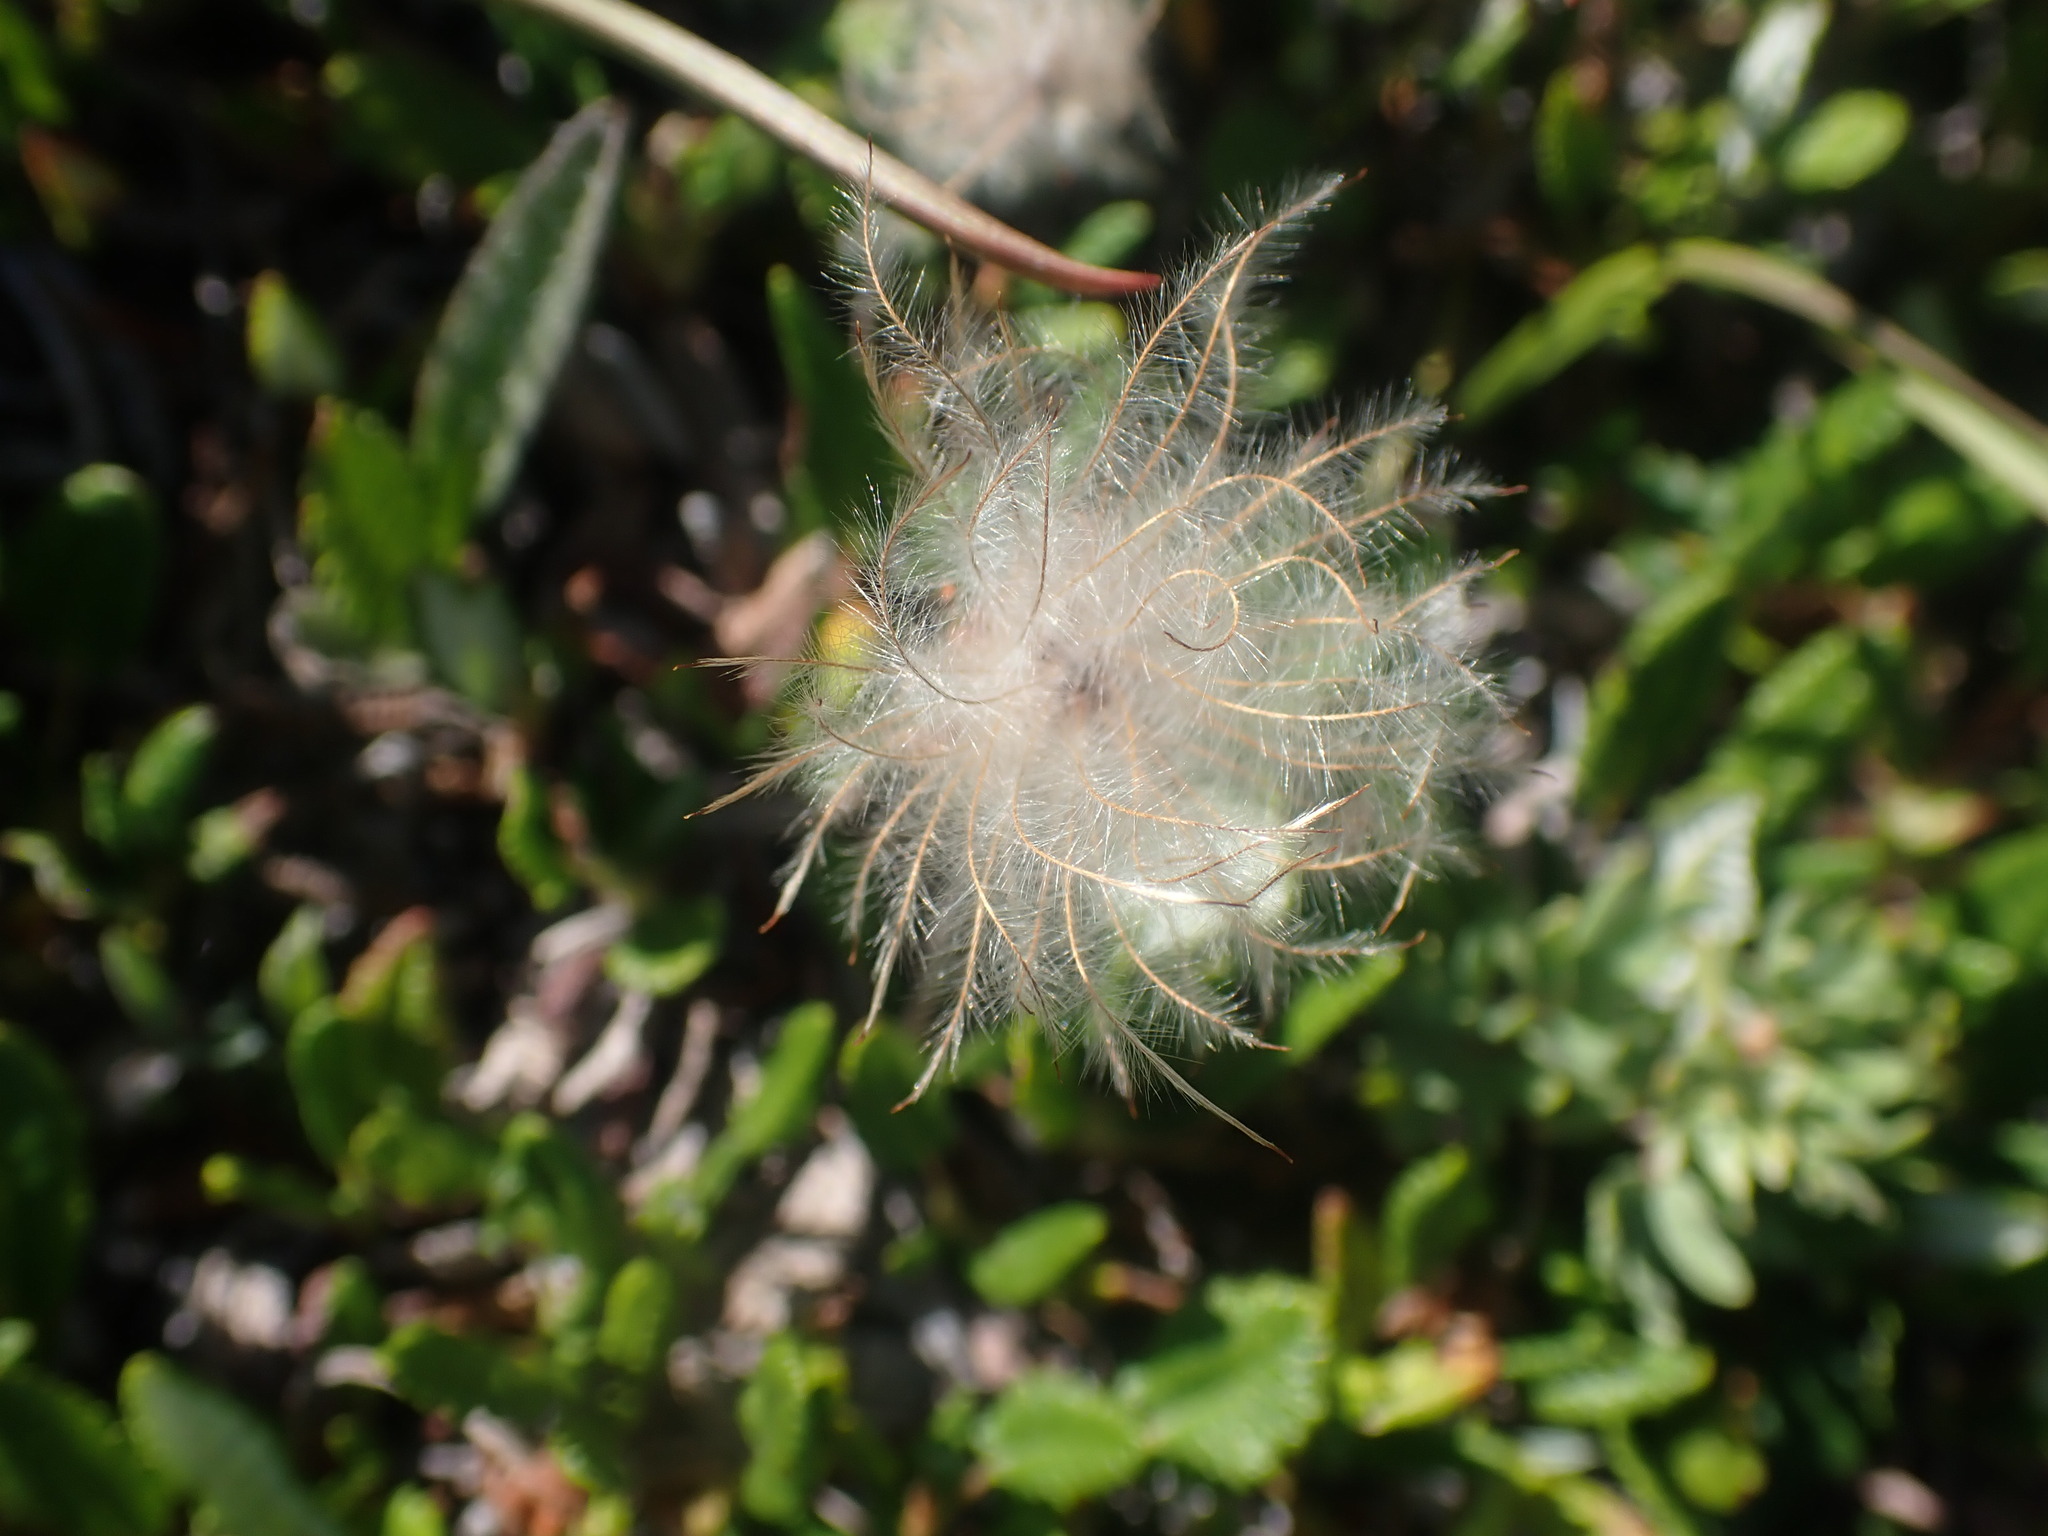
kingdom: Plantae
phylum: Tracheophyta
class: Magnoliopsida
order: Rosales
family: Rosaceae
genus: Dryas
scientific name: Dryas
